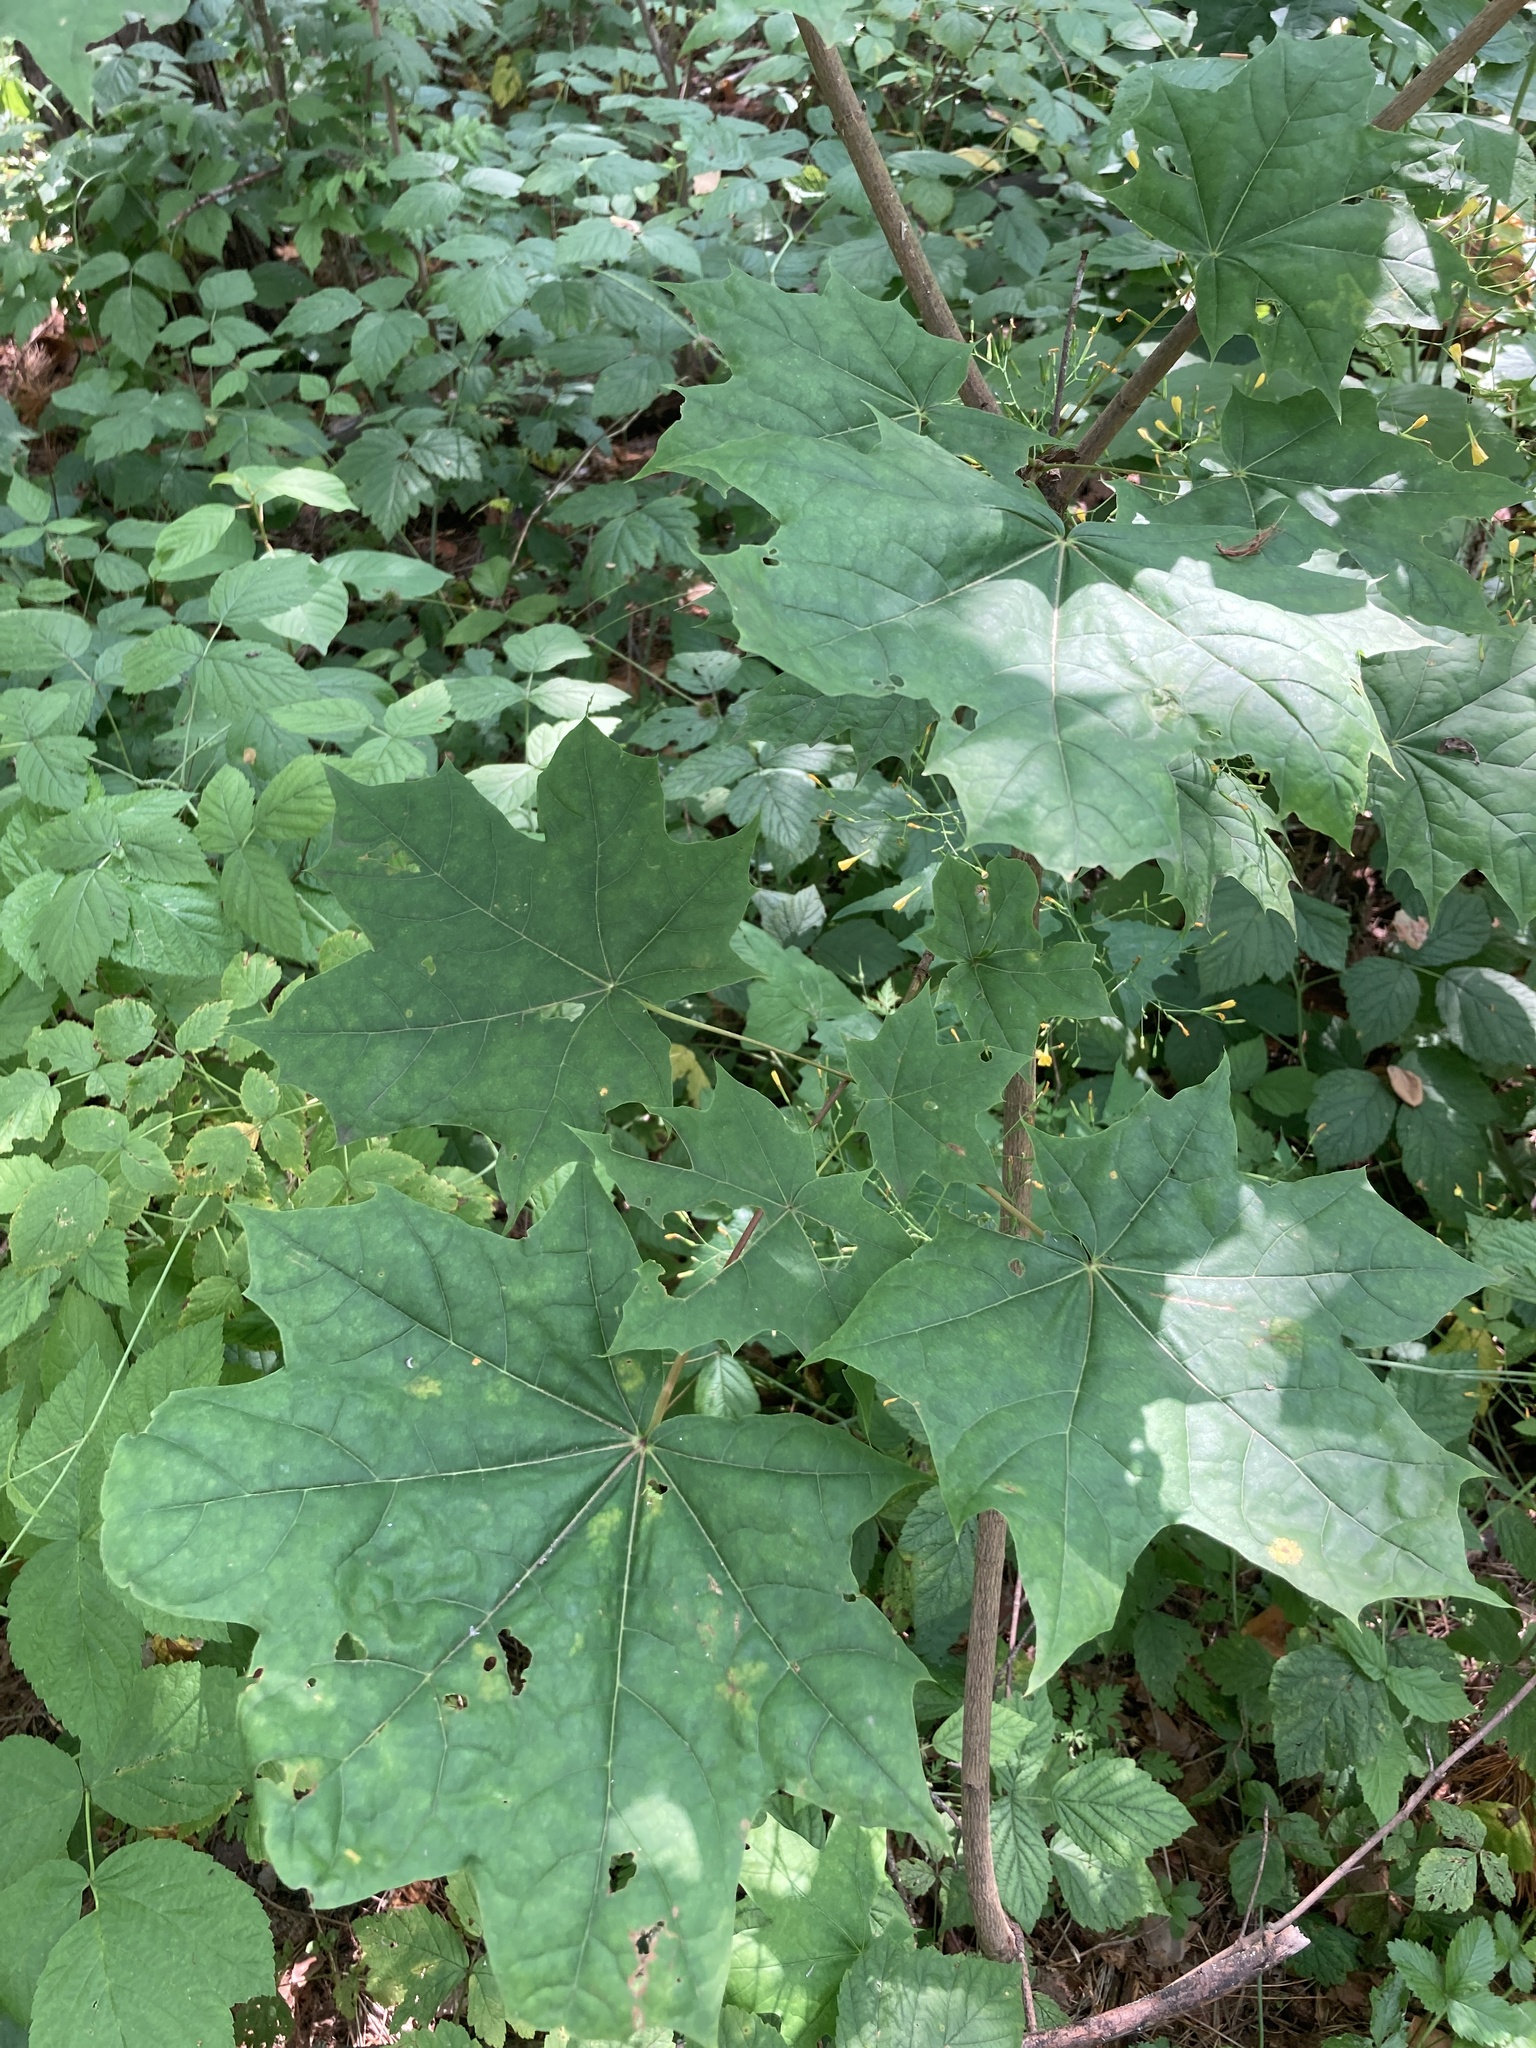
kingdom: Plantae
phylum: Tracheophyta
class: Magnoliopsida
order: Sapindales
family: Sapindaceae
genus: Acer
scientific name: Acer platanoides
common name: Norway maple
